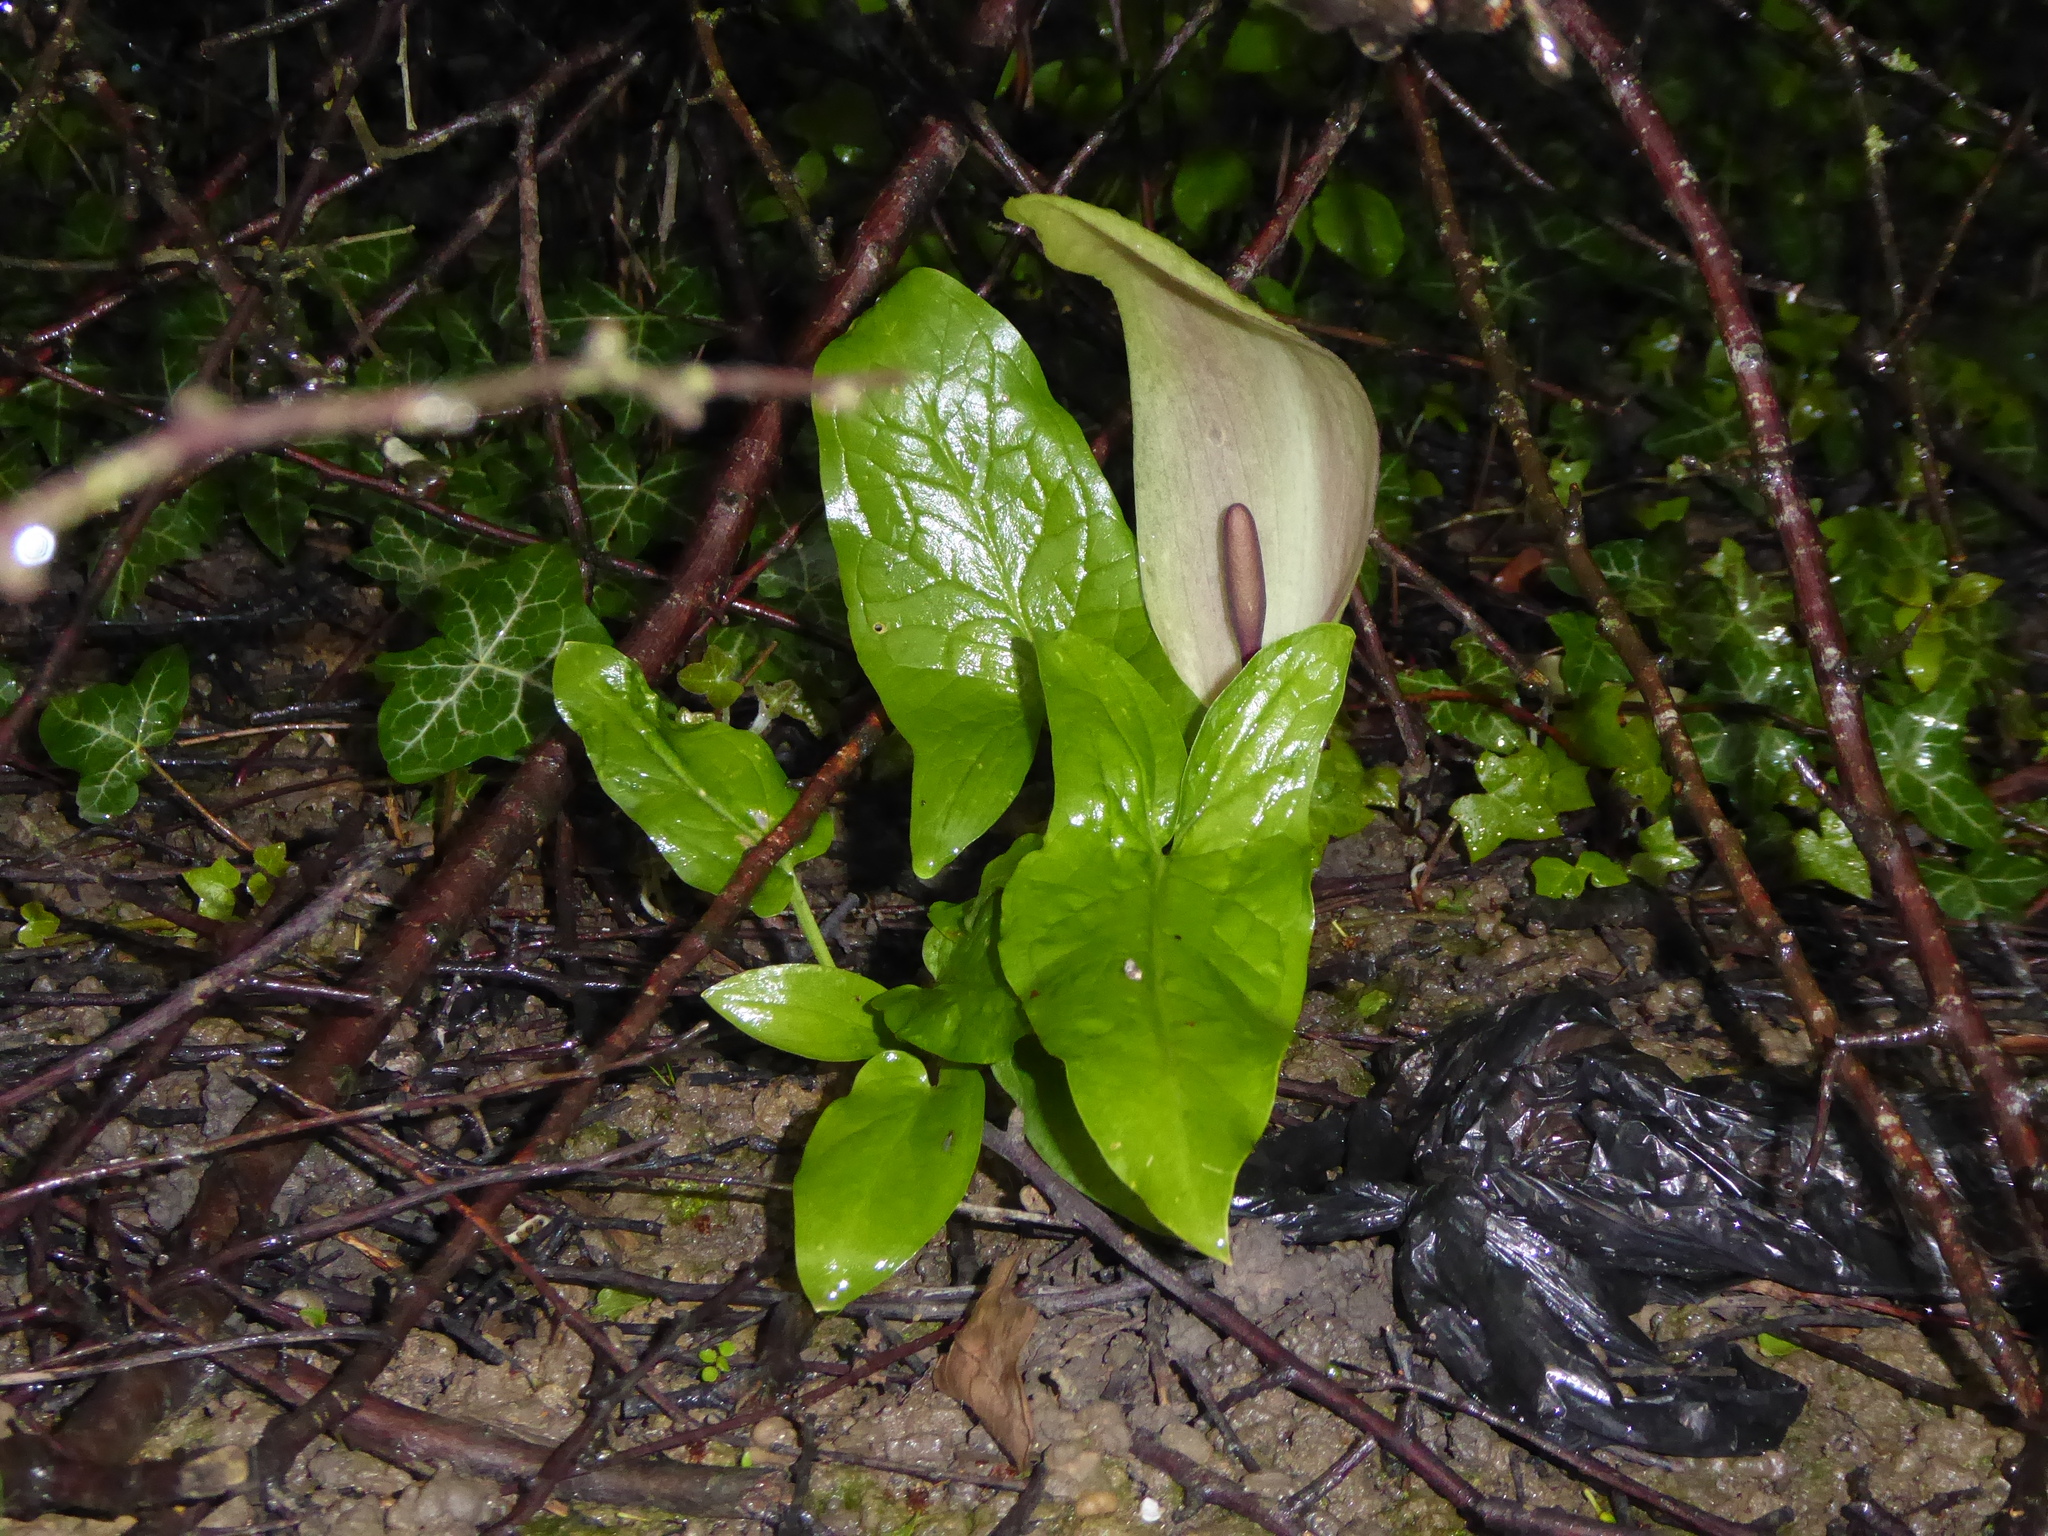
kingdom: Plantae
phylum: Tracheophyta
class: Liliopsida
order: Alismatales
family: Araceae
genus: Arum
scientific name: Arum maculatum
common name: Lords-and-ladies
